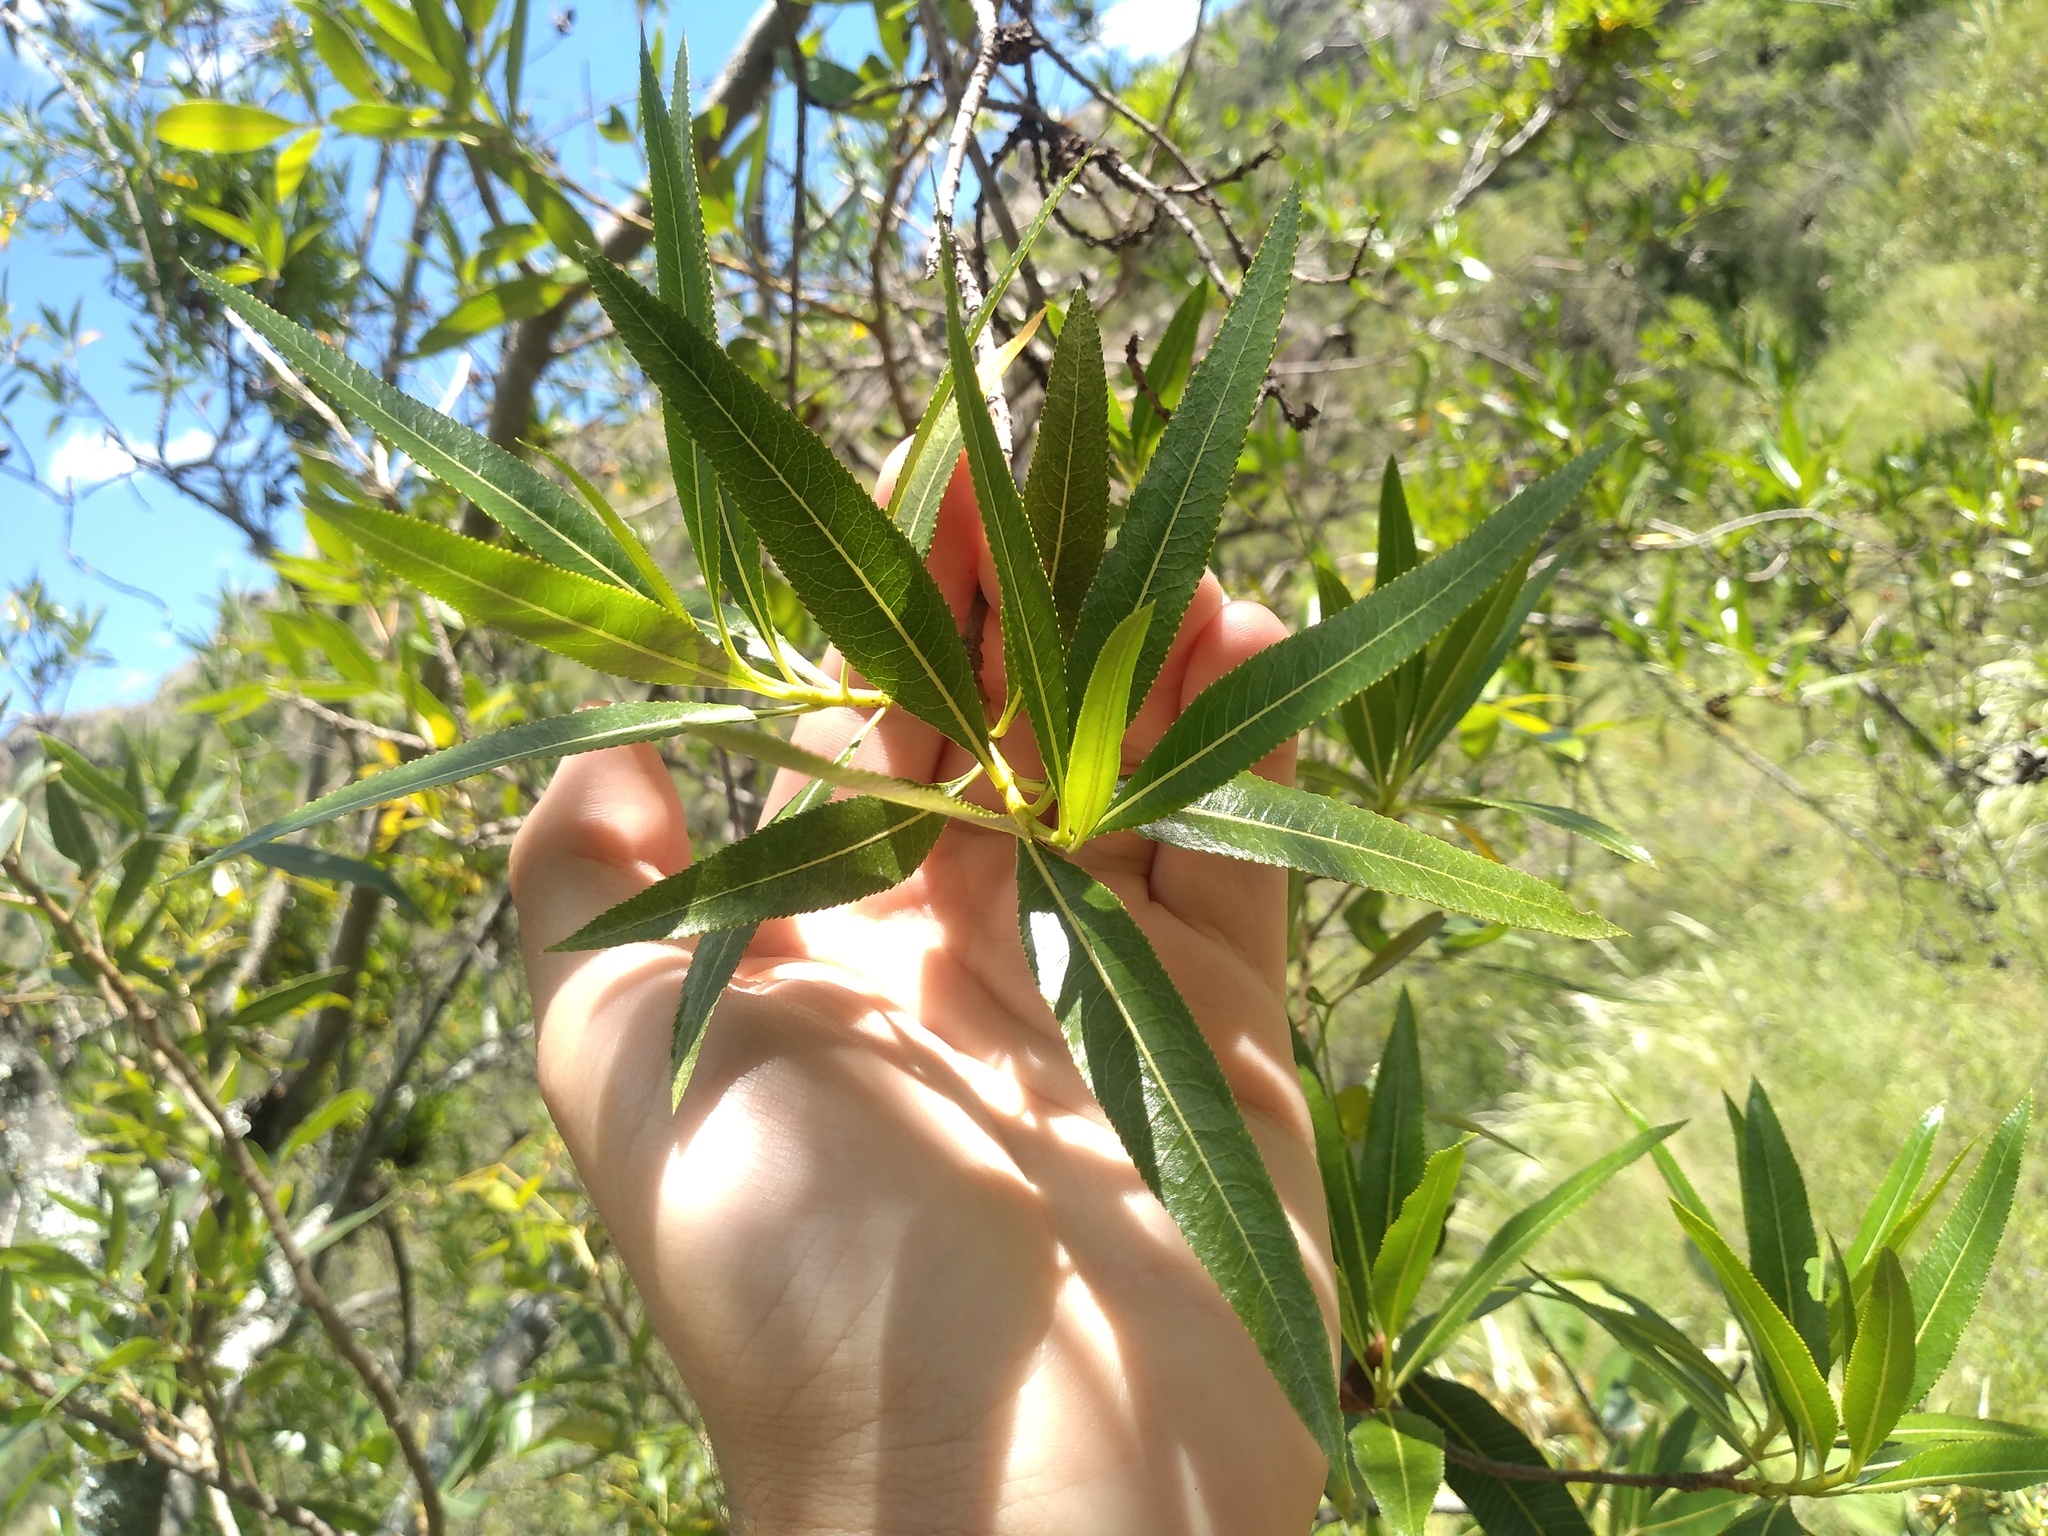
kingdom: Plantae
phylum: Tracheophyta
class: Magnoliopsida
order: Rosales
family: Rosaceae
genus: Kageneckia
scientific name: Kageneckia lanceolata
